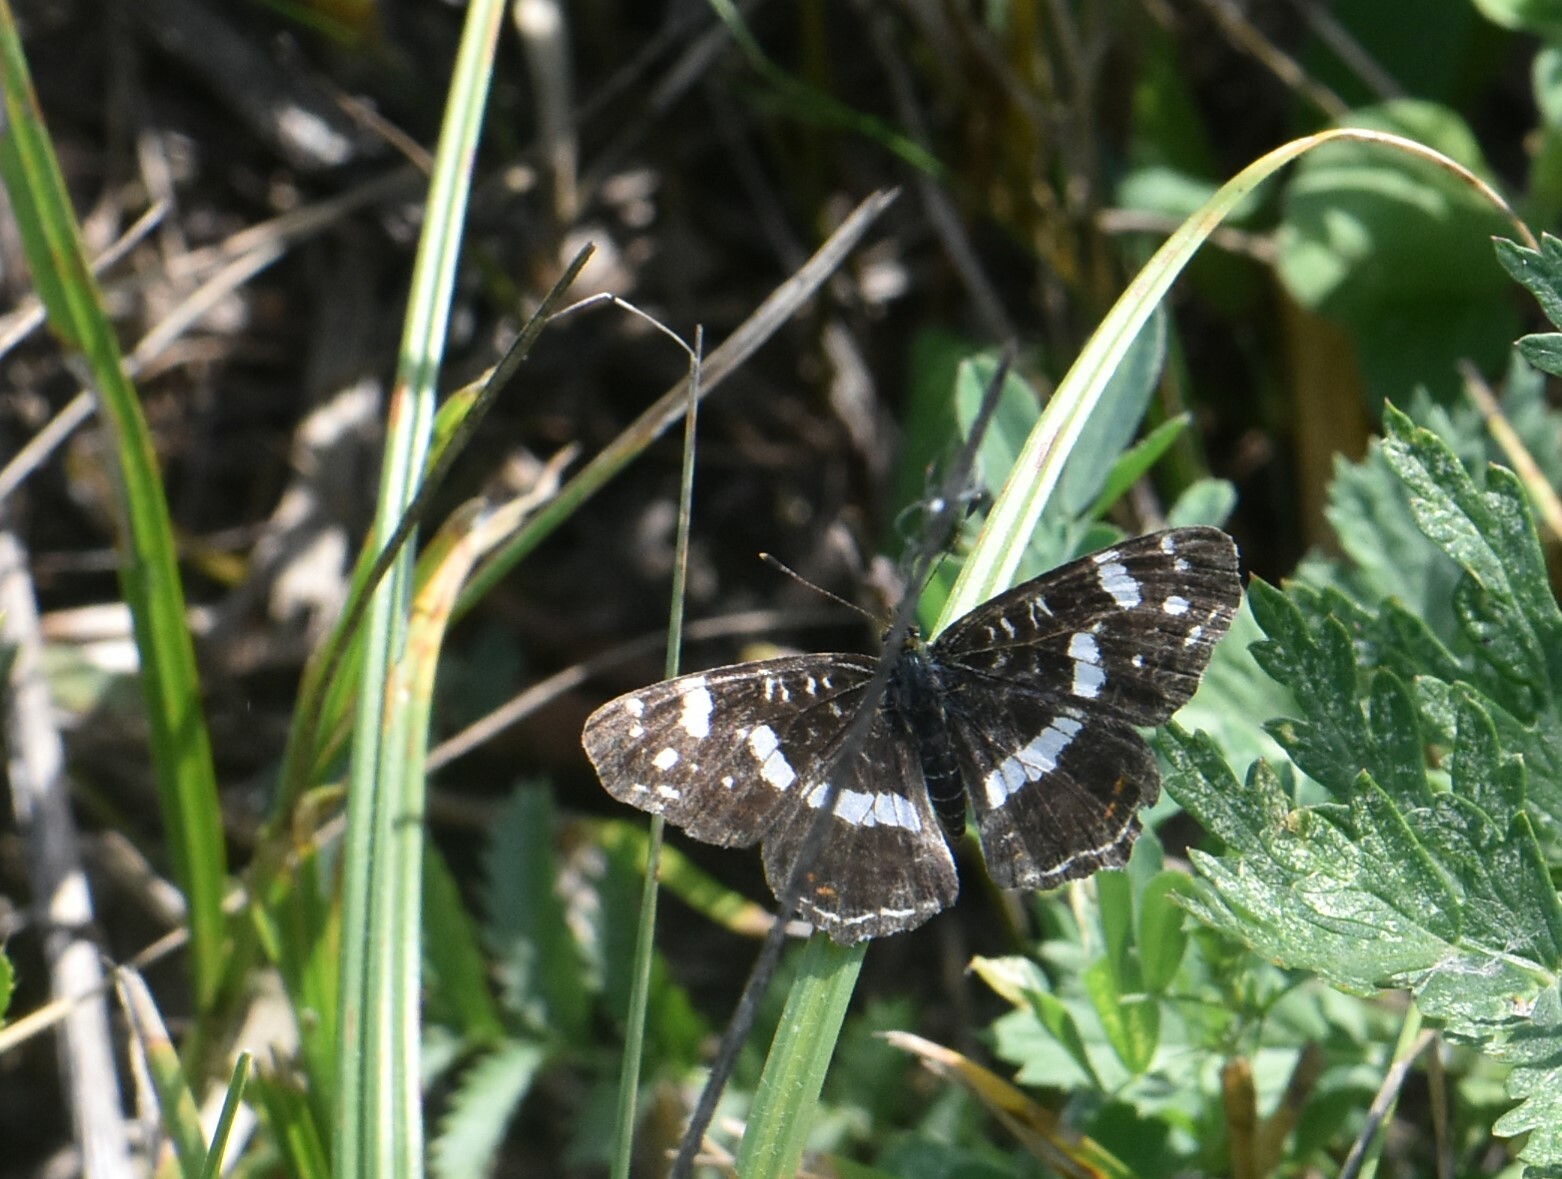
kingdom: Animalia
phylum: Arthropoda
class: Insecta
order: Lepidoptera
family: Nymphalidae
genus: Araschnia
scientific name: Araschnia levana
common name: Map butterfly
